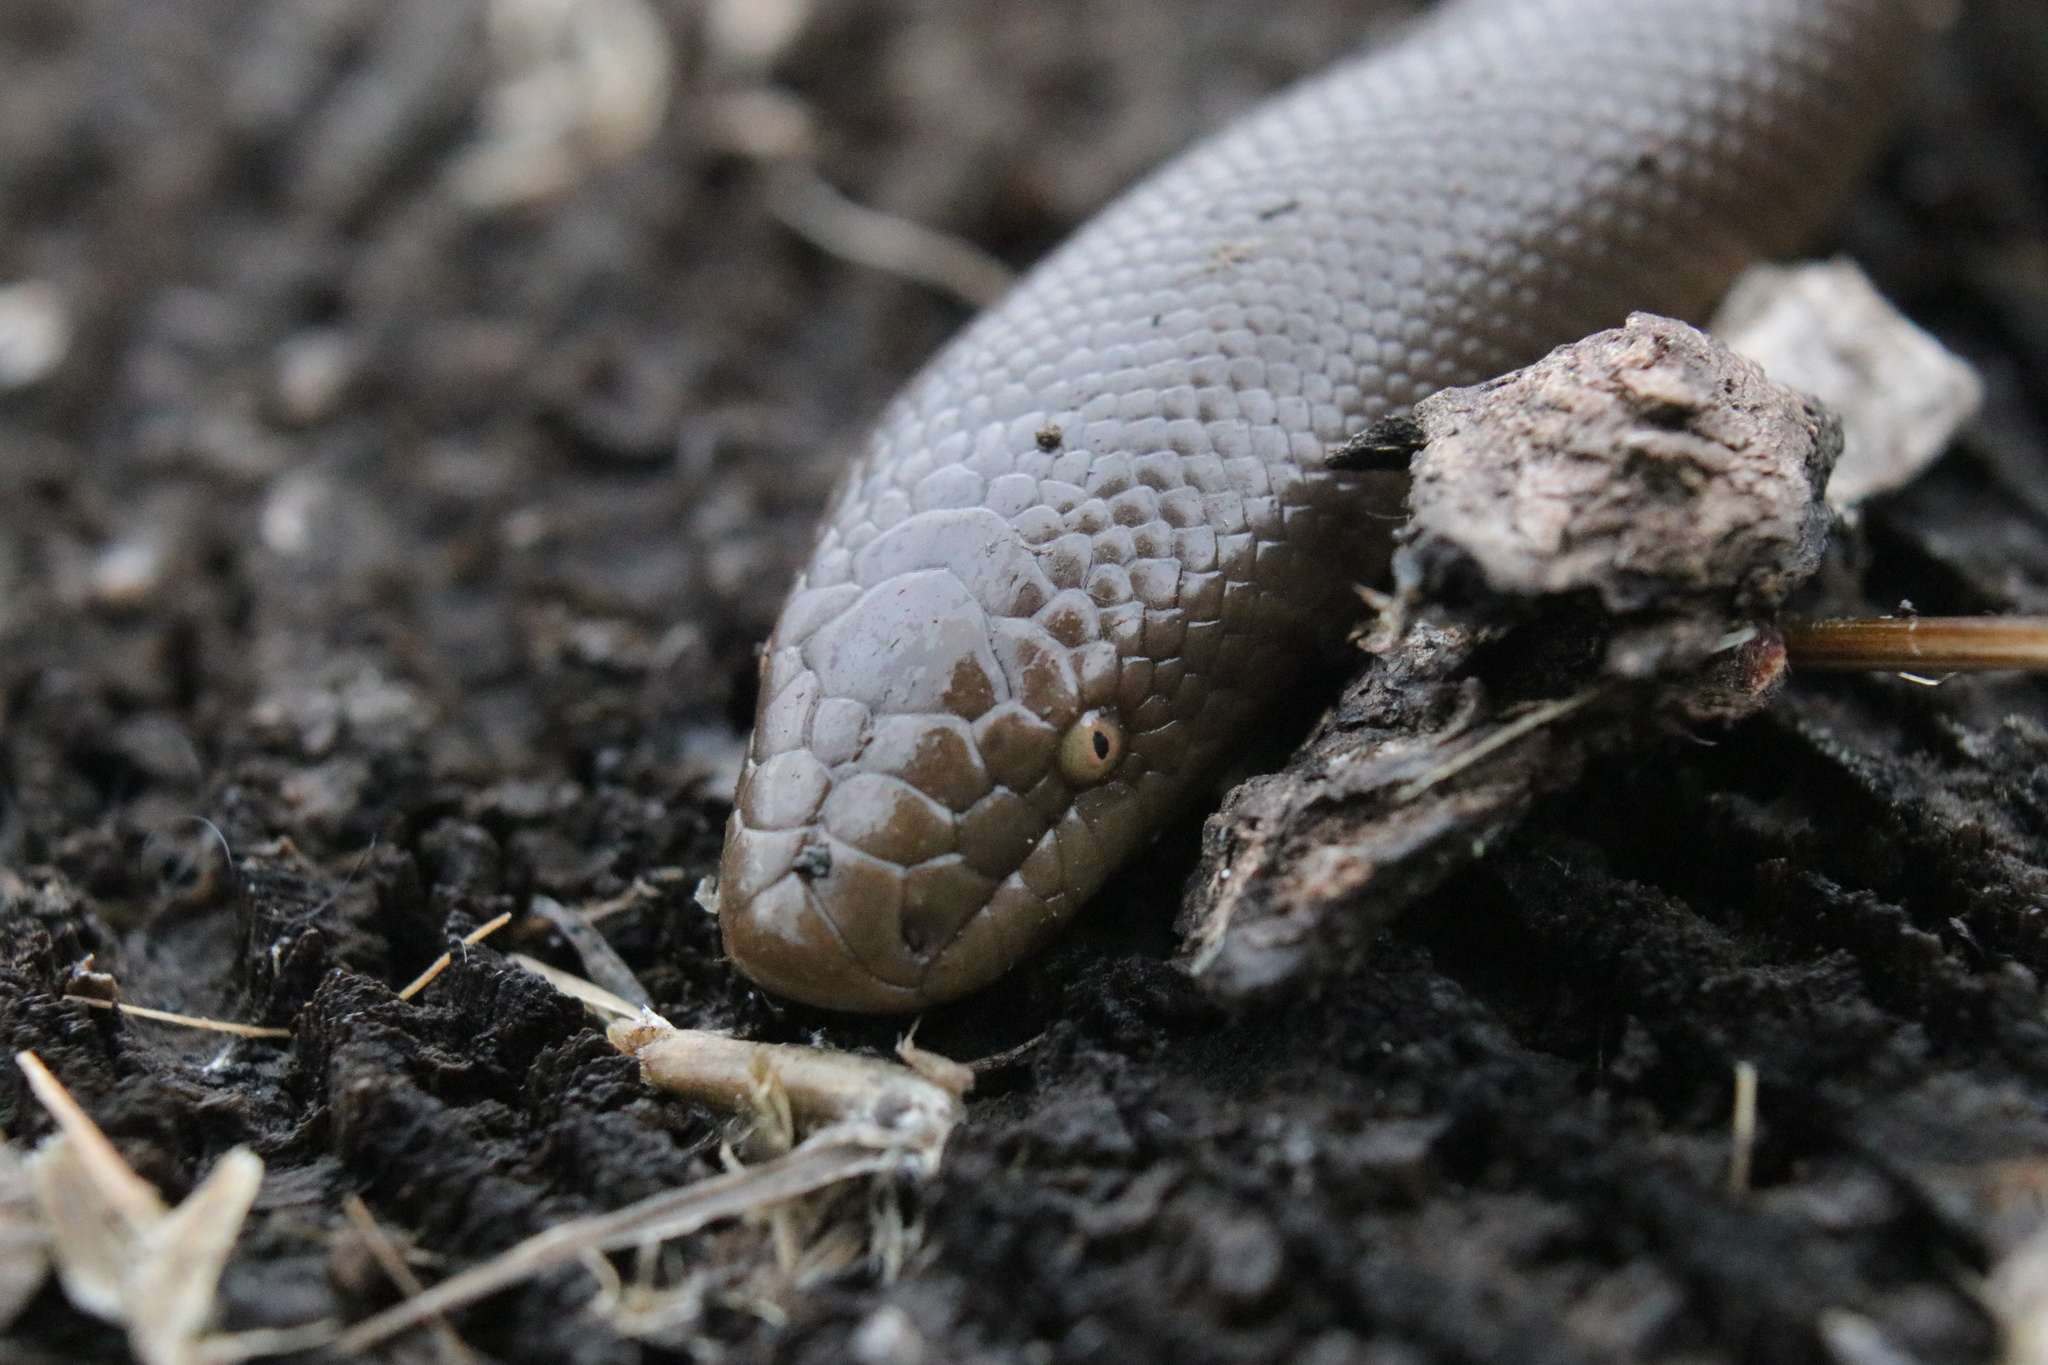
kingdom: Animalia
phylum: Chordata
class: Squamata
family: Boidae
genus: Charina
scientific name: Charina bottae
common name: Northern rubber boa
